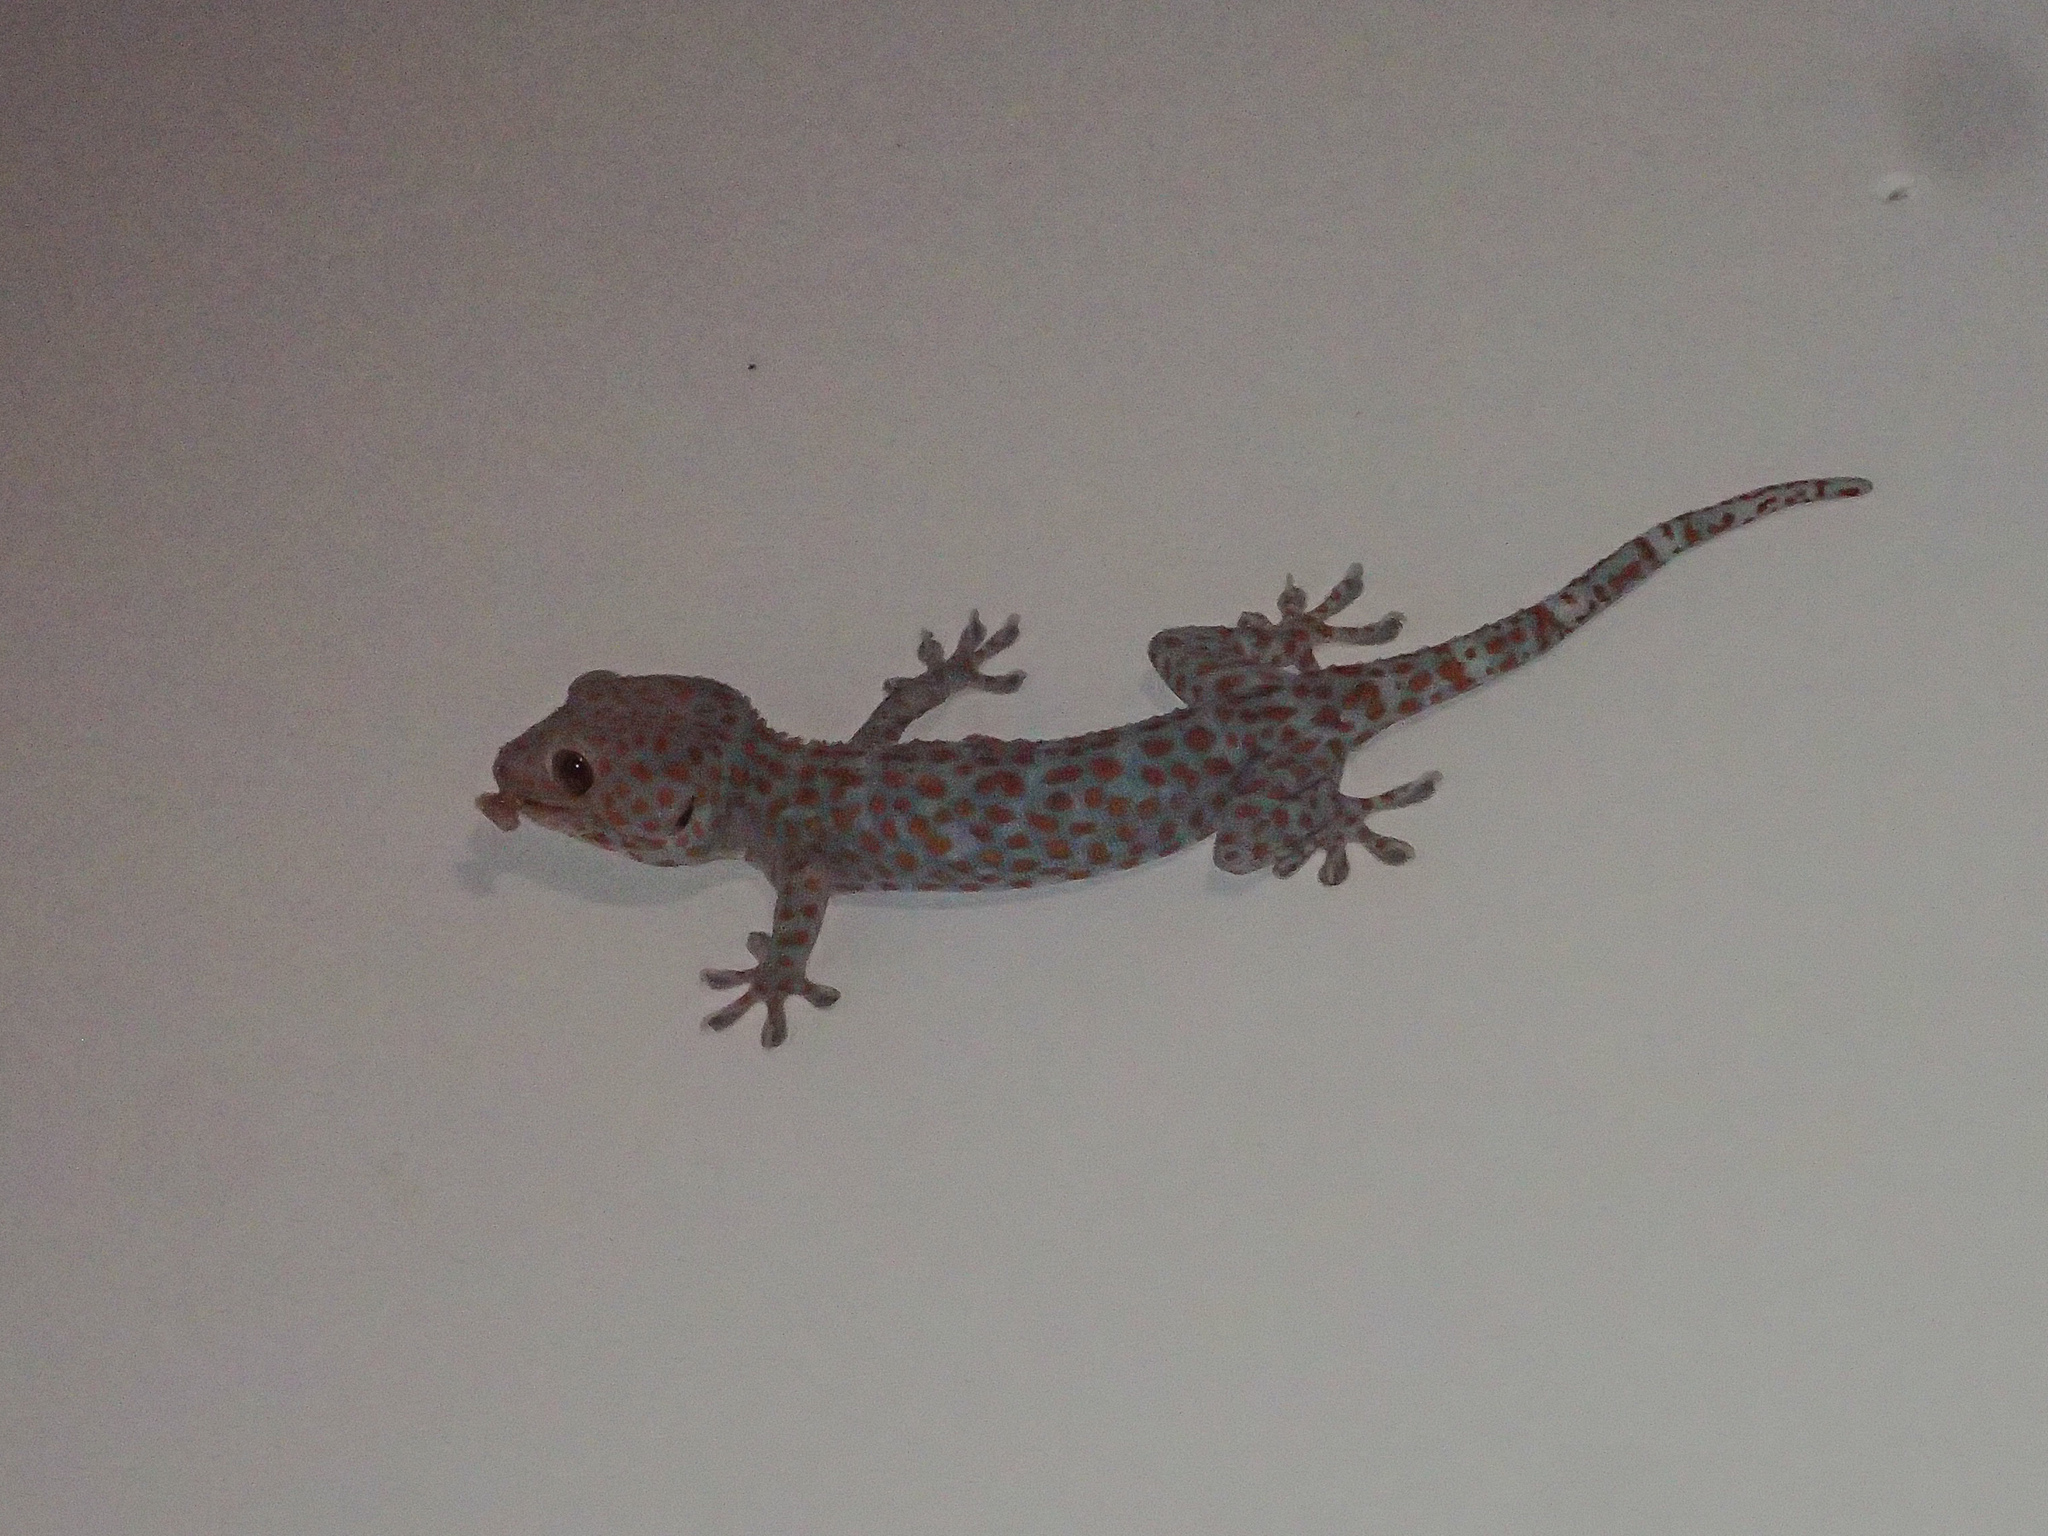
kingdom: Animalia
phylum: Chordata
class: Squamata
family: Gekkonidae
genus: Gekko
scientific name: Gekko gecko
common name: Tokay gecko
